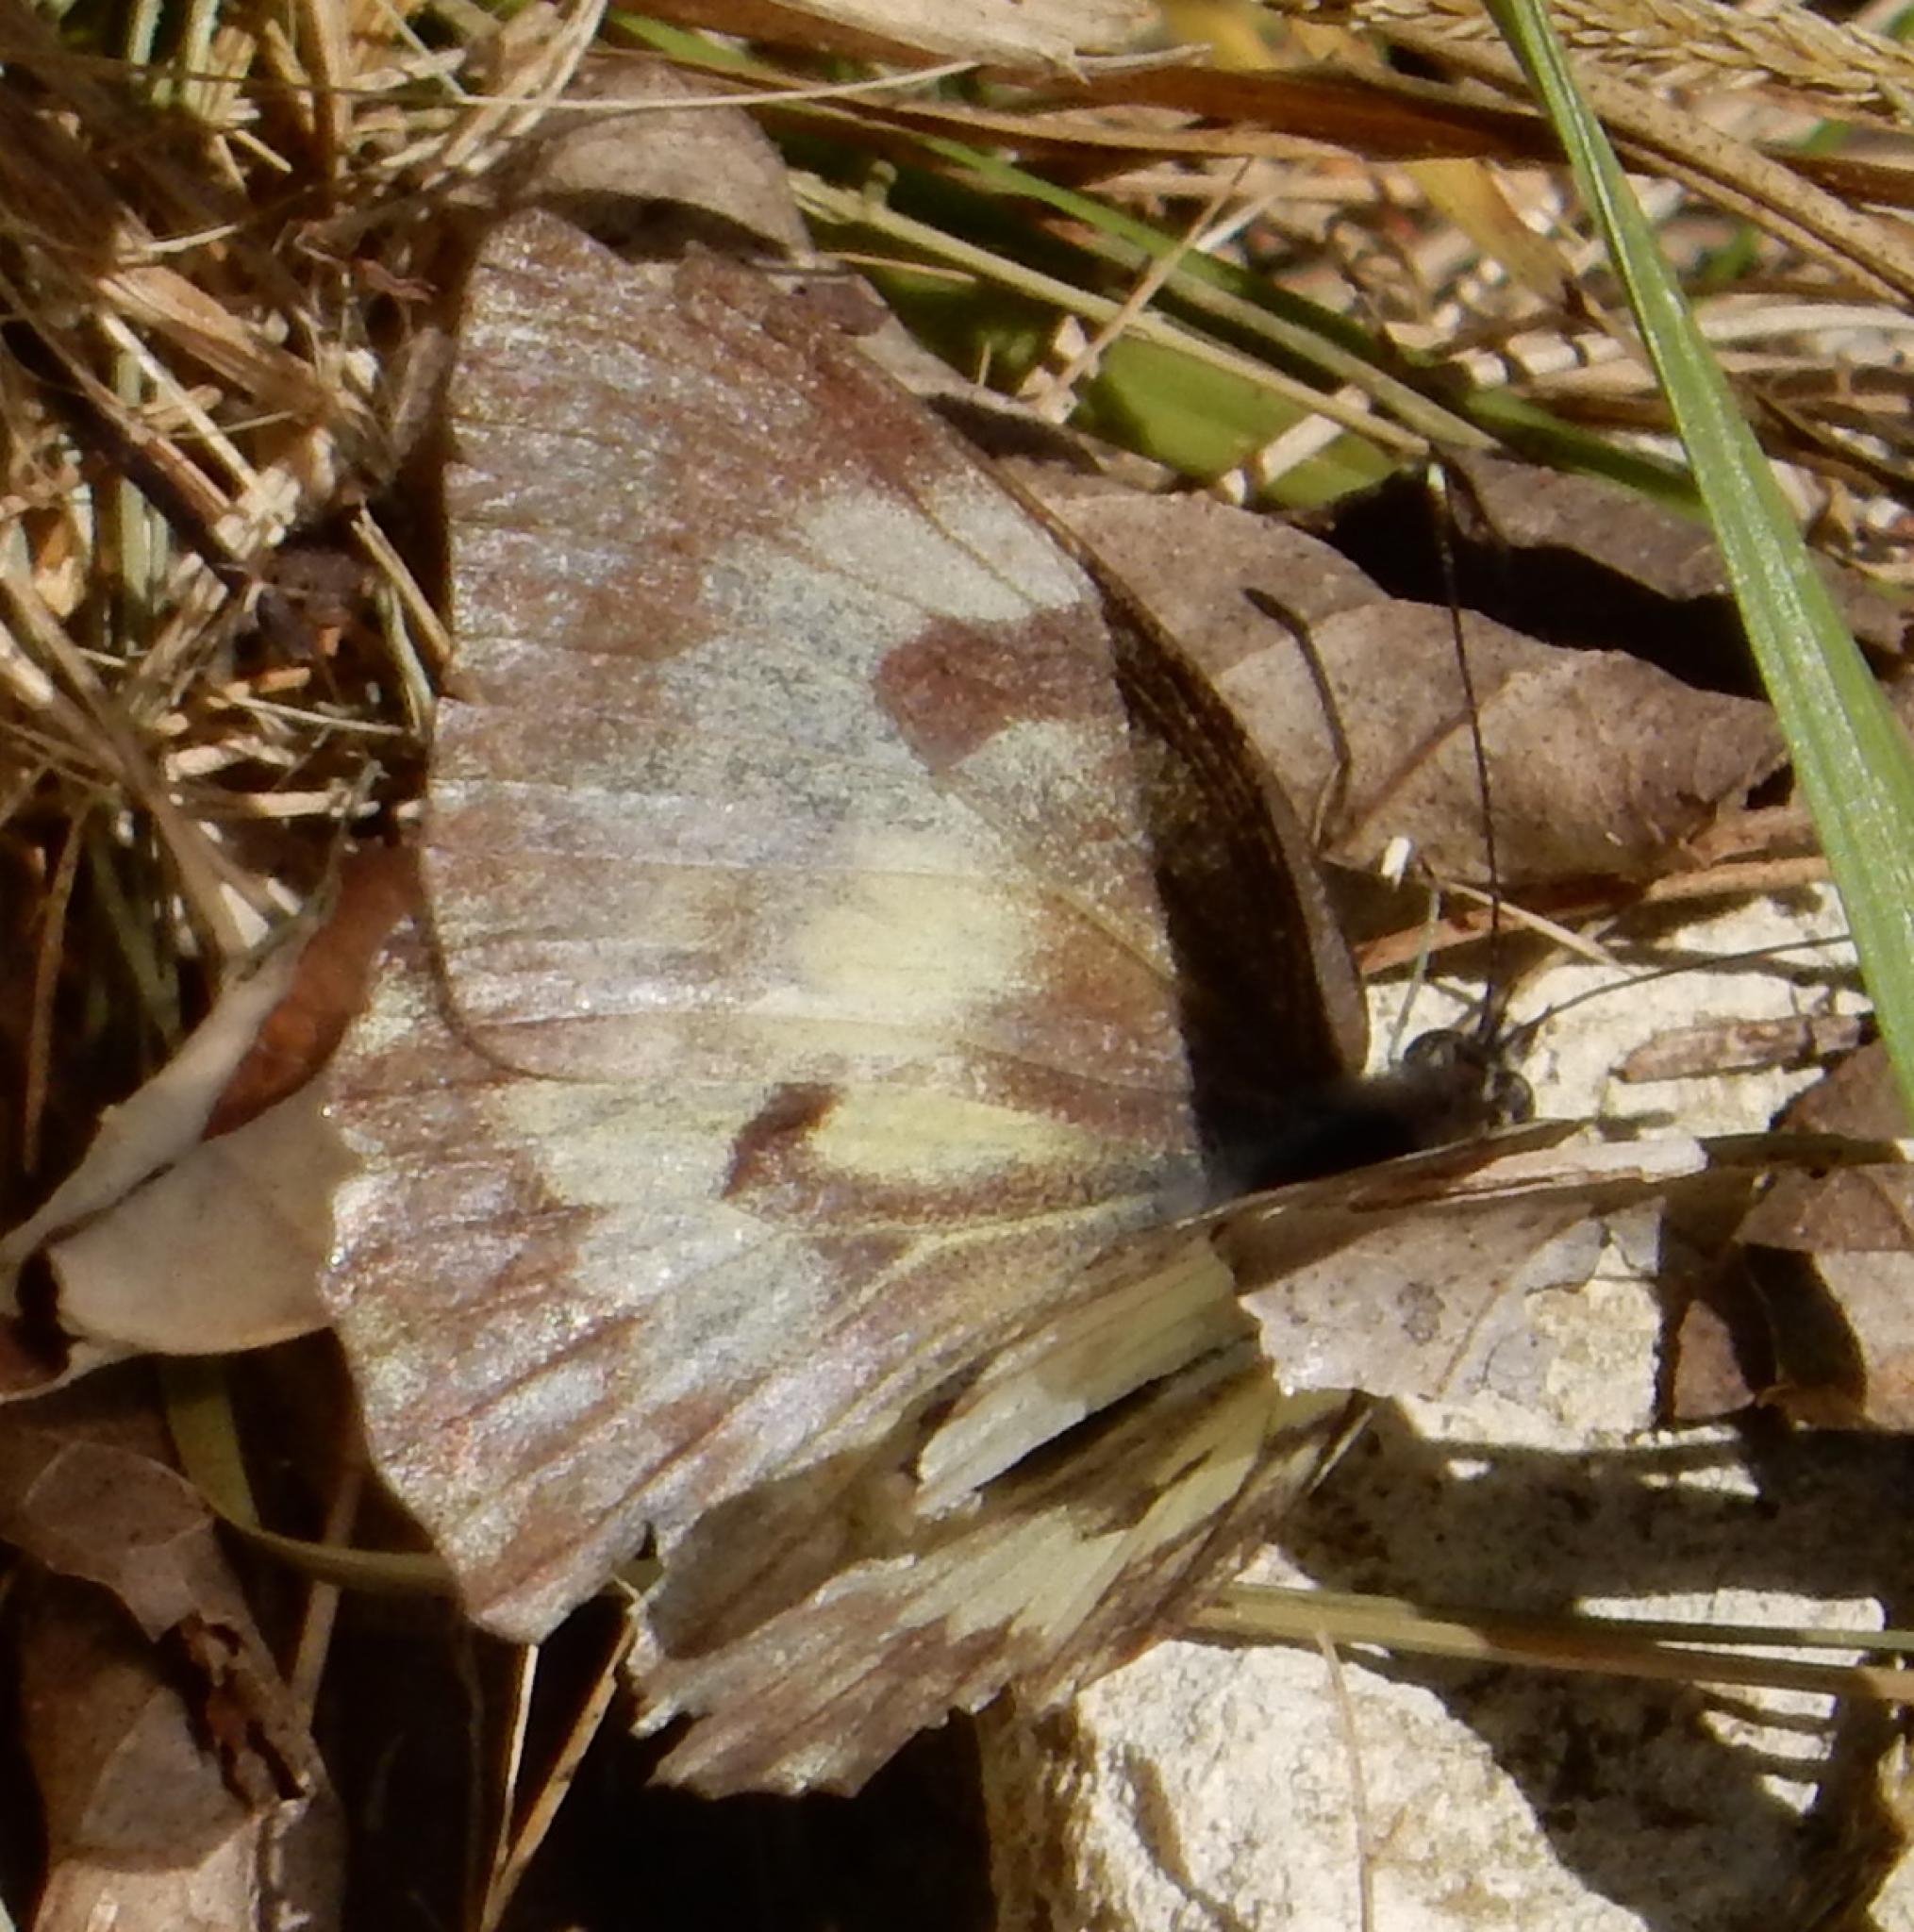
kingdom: Animalia
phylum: Arthropoda
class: Insecta
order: Lepidoptera
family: Pieridae
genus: Belenois
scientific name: Belenois gidica
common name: Pointed caper white
